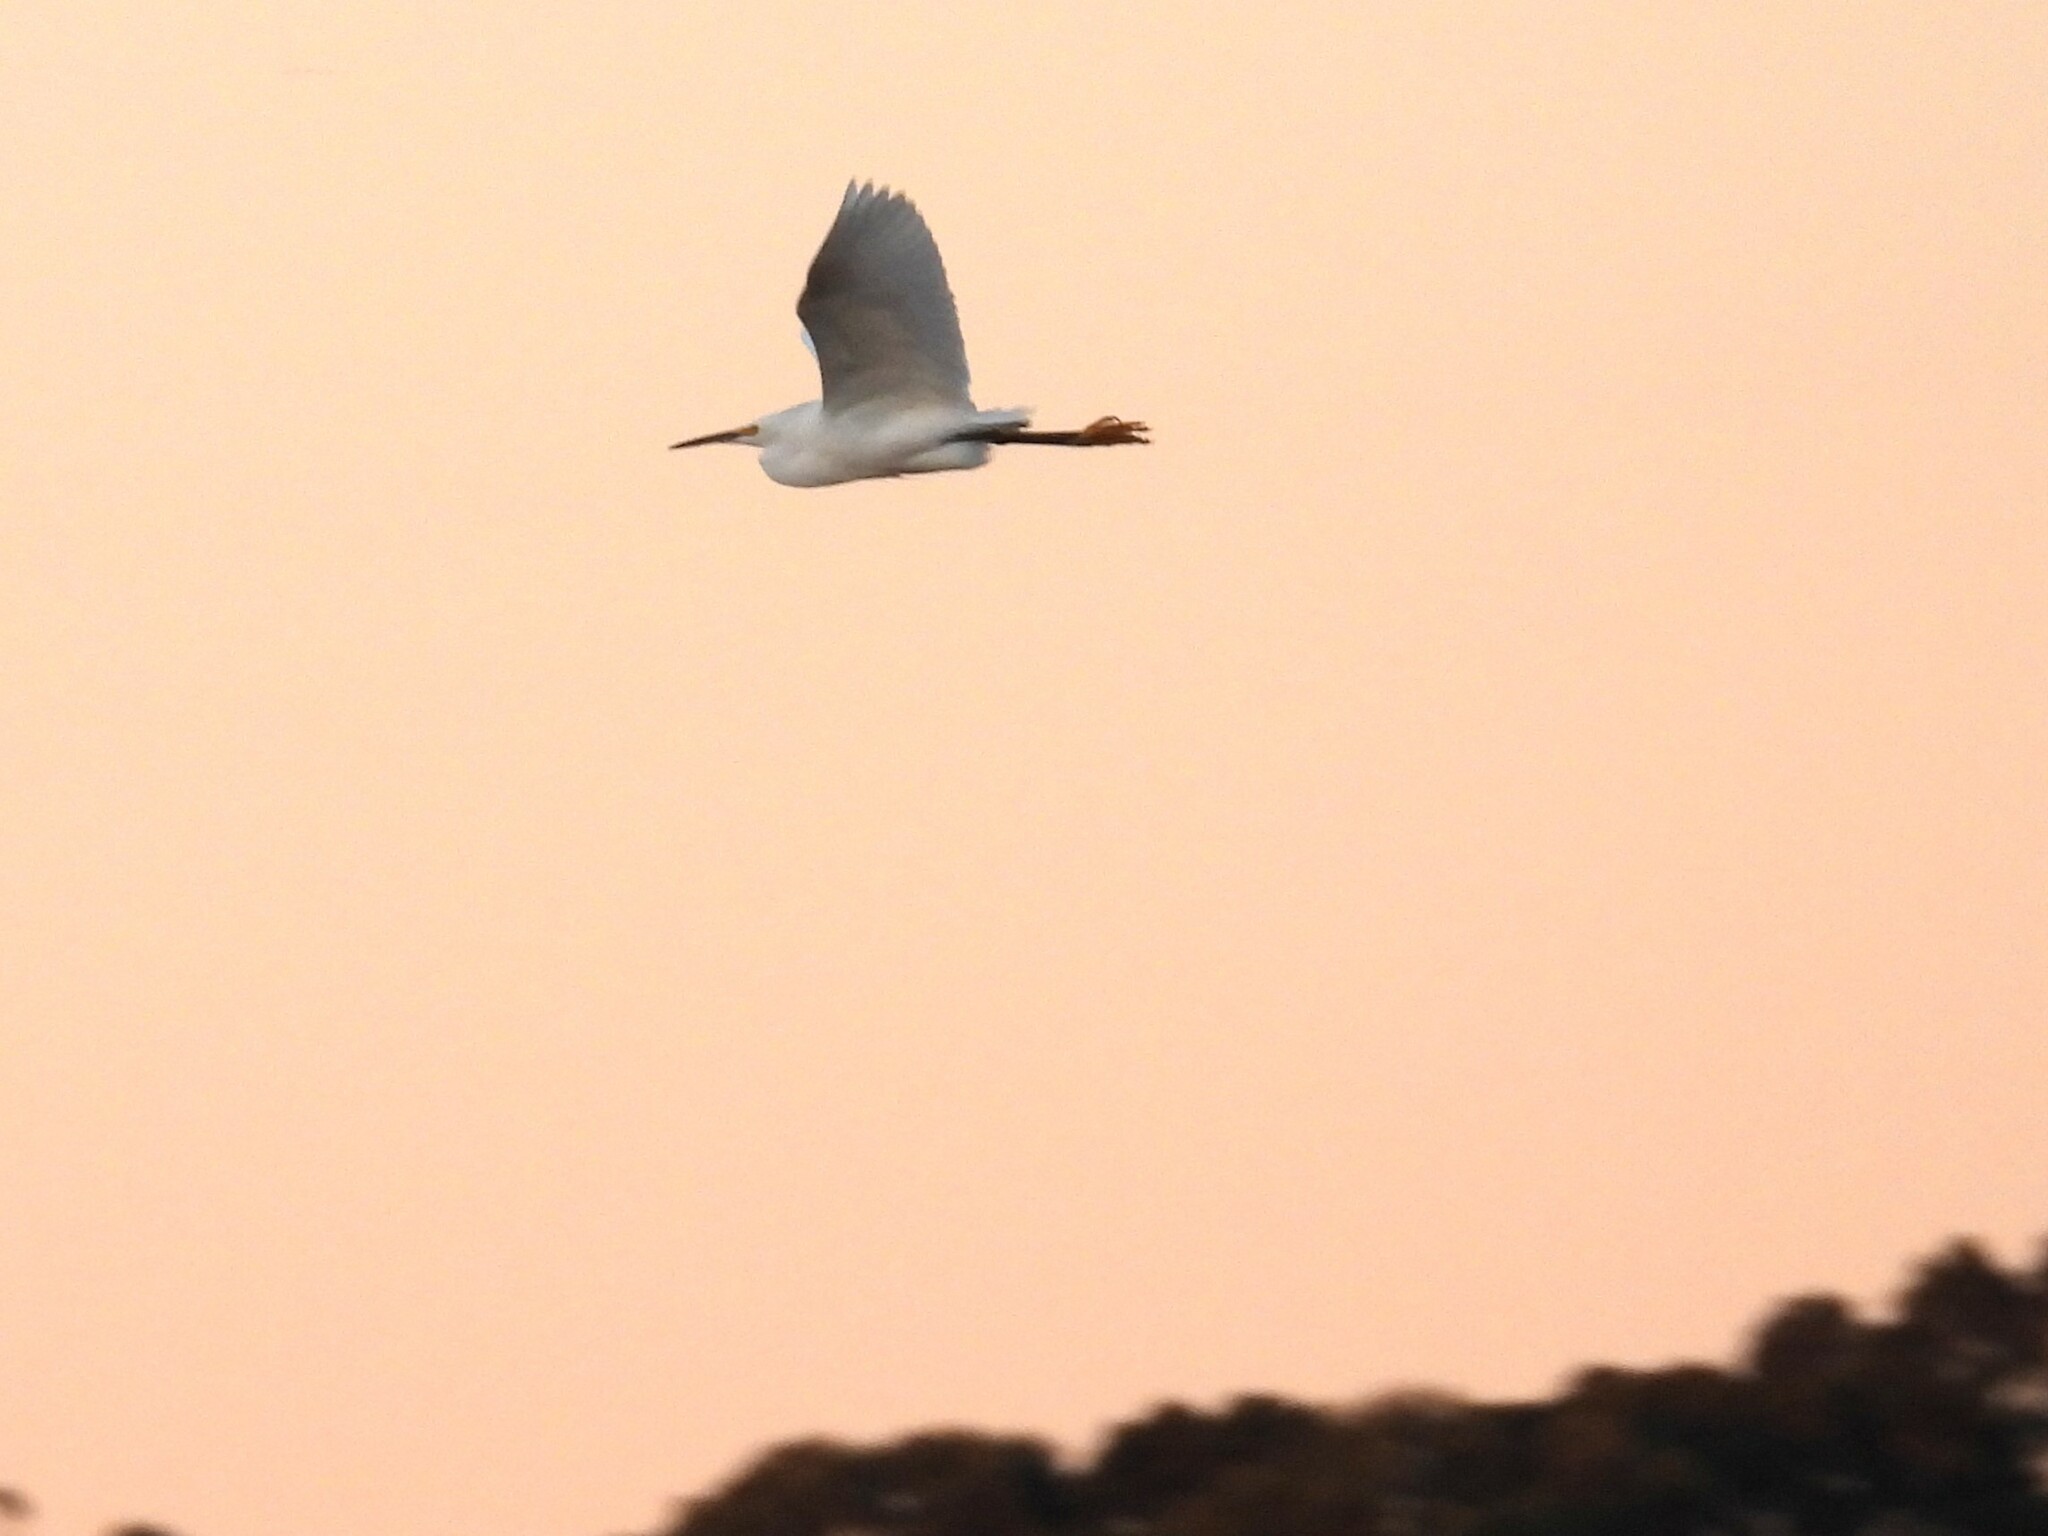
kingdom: Animalia
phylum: Chordata
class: Aves
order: Pelecaniformes
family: Ardeidae
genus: Egretta
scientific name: Egretta thula
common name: Snowy egret
